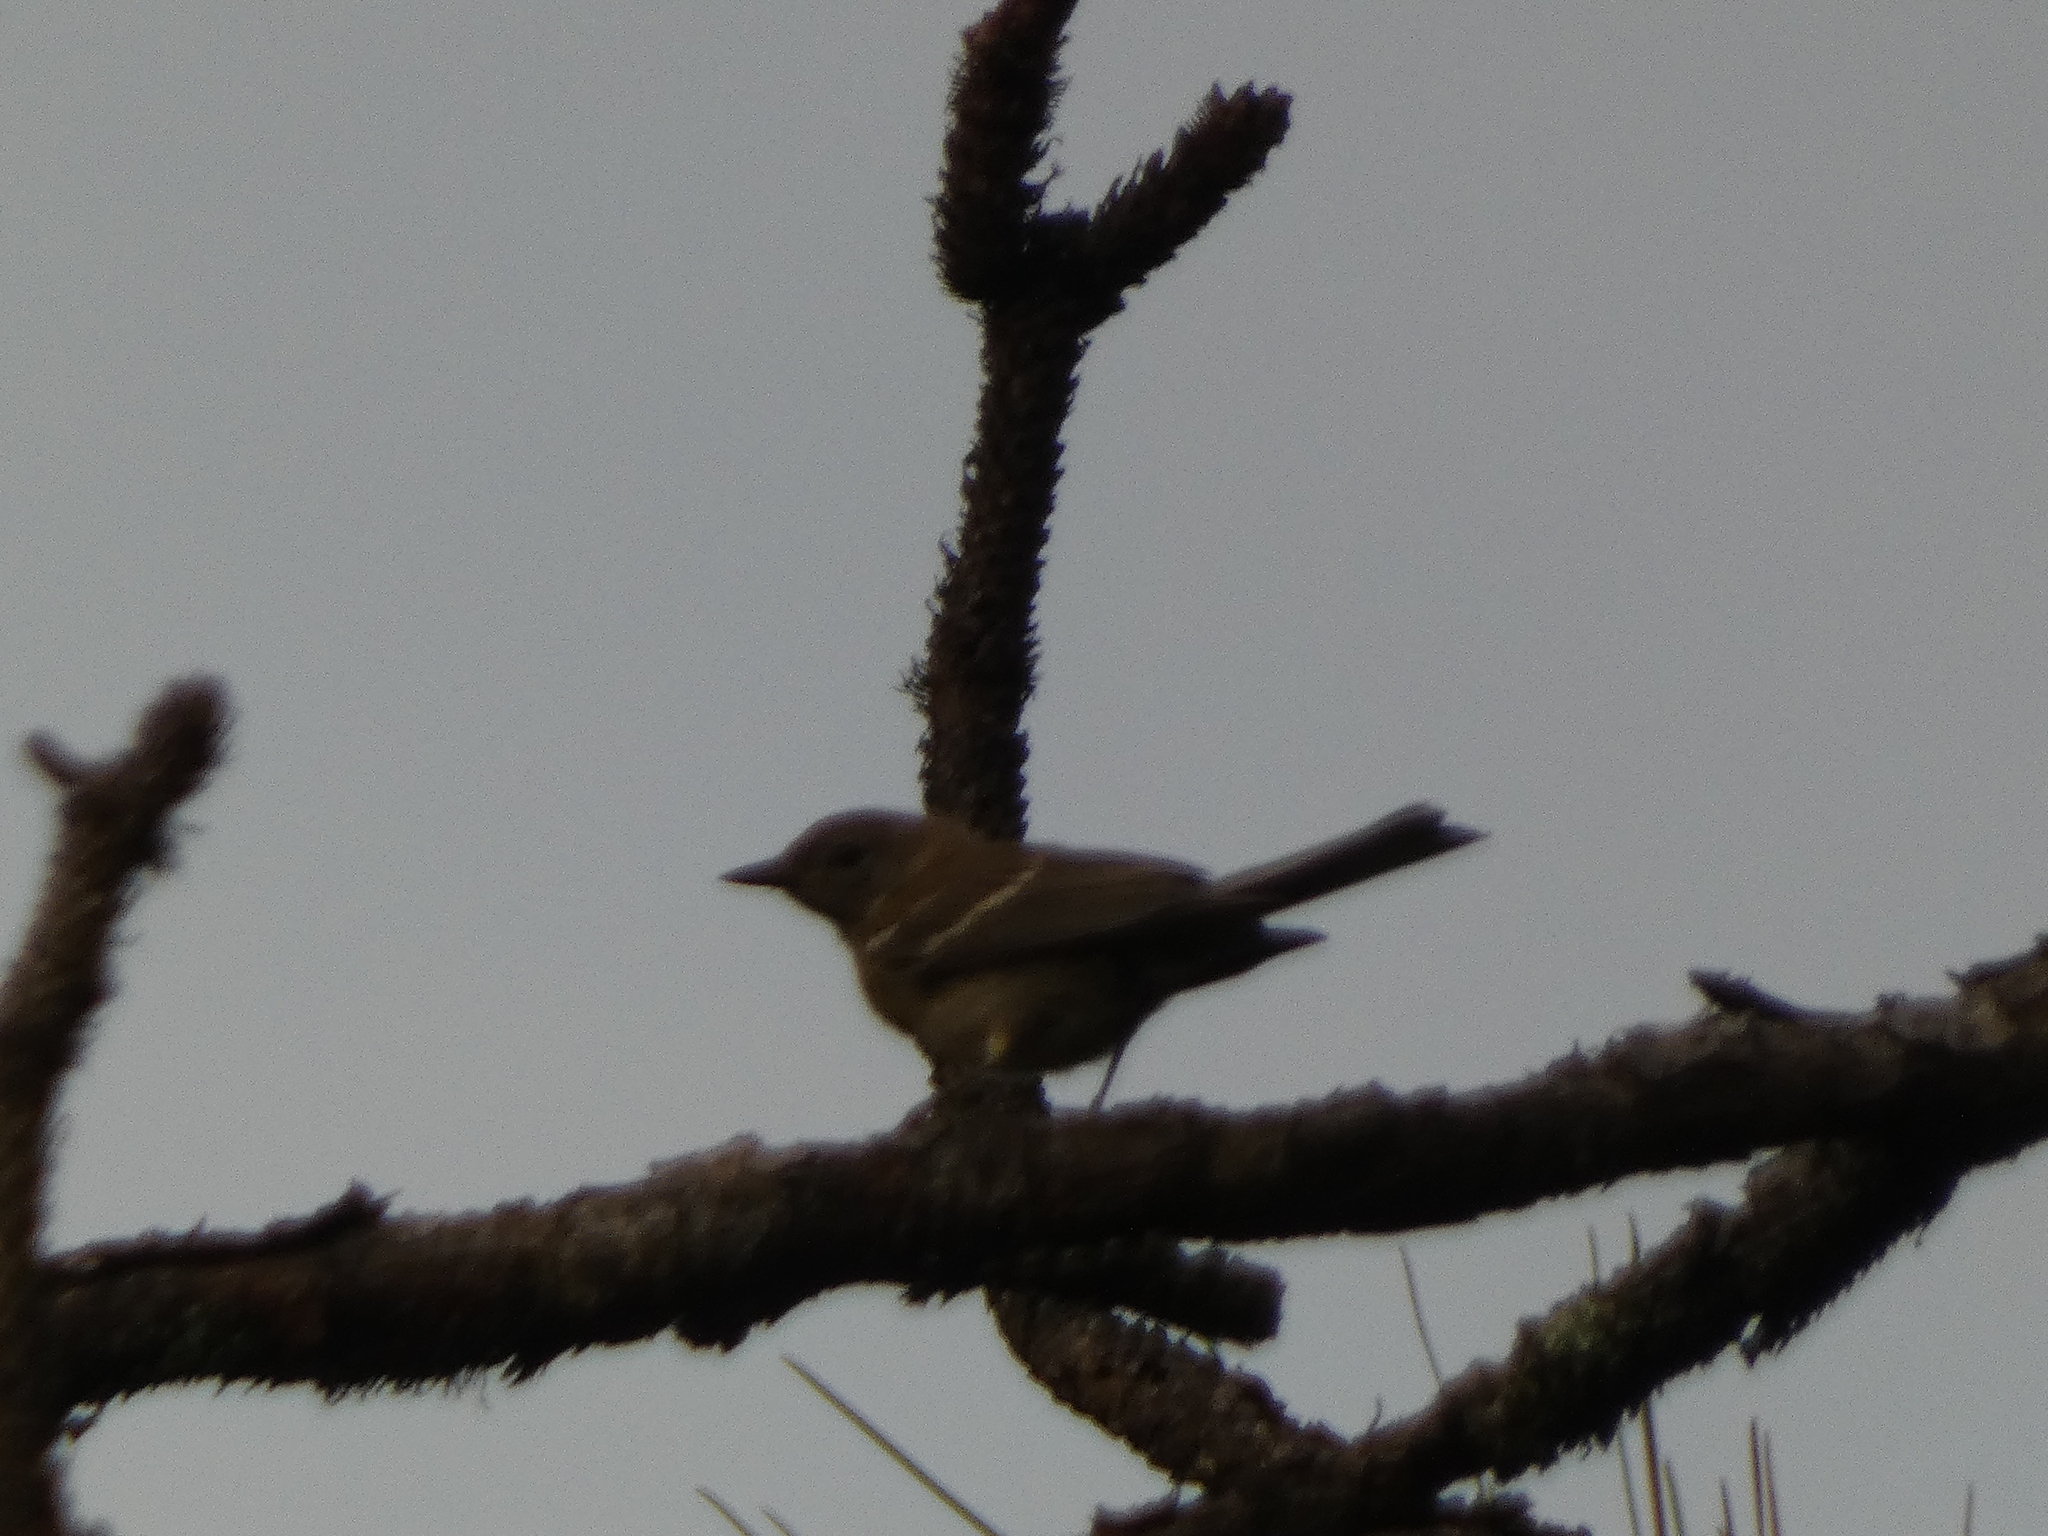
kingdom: Animalia
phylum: Chordata
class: Aves
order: Passeriformes
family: Parulidae
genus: Setophaga
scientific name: Setophaga pinus
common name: Pine warbler
